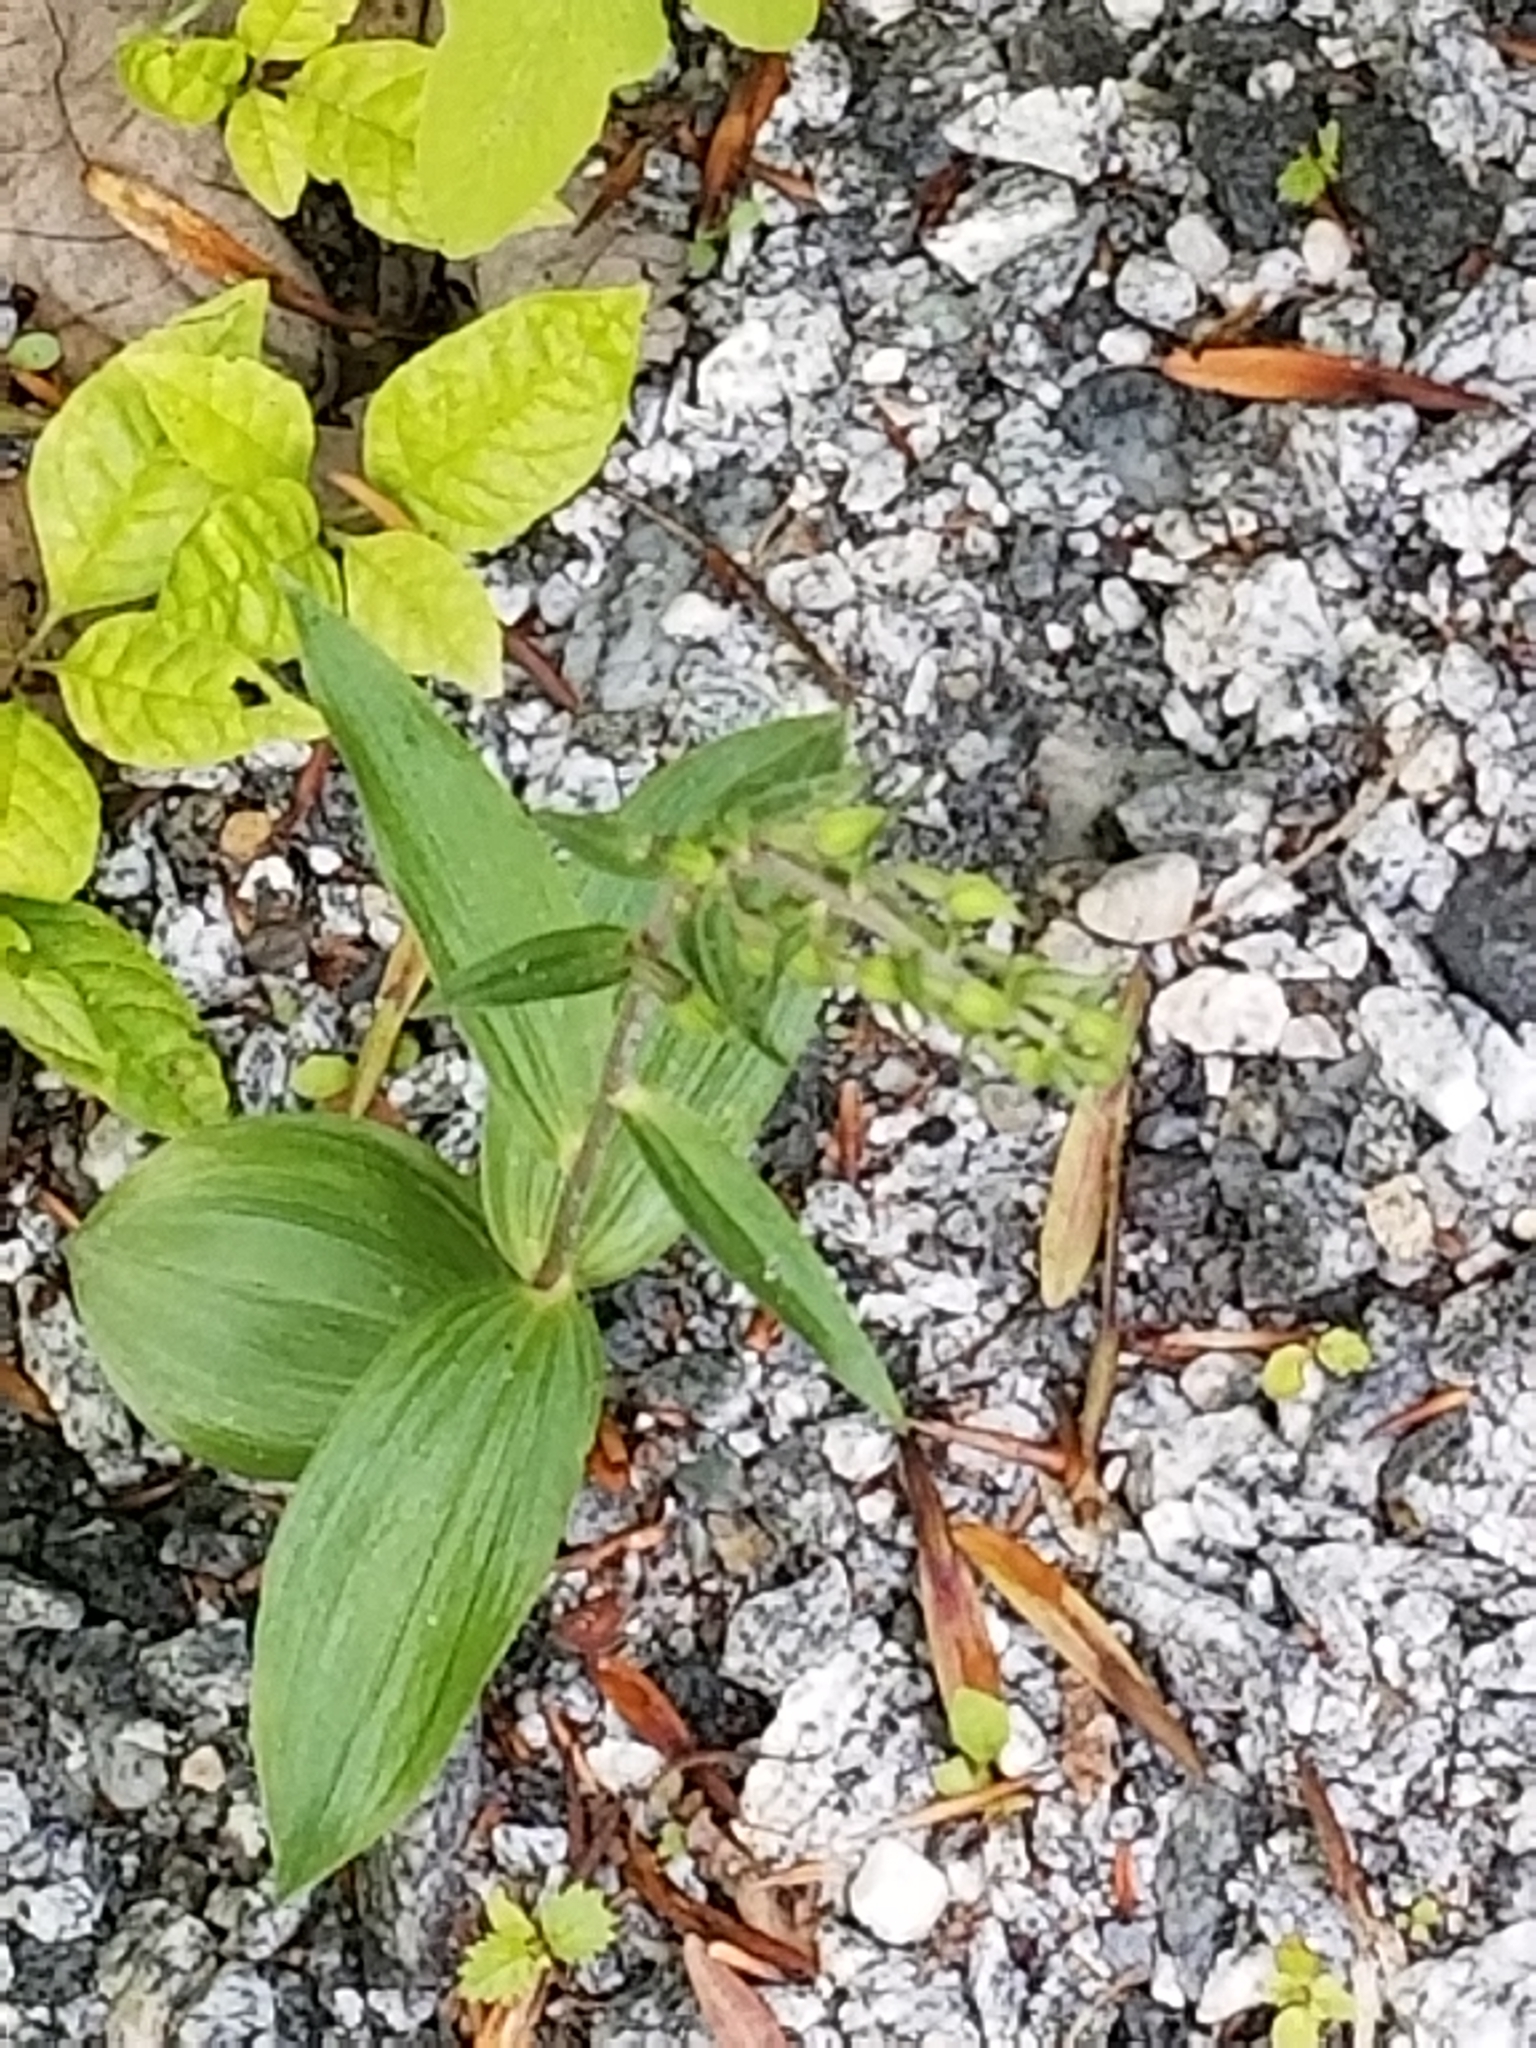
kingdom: Plantae
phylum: Tracheophyta
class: Liliopsida
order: Asparagales
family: Orchidaceae
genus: Epipactis
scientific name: Epipactis helleborine
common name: Broad-leaved helleborine
